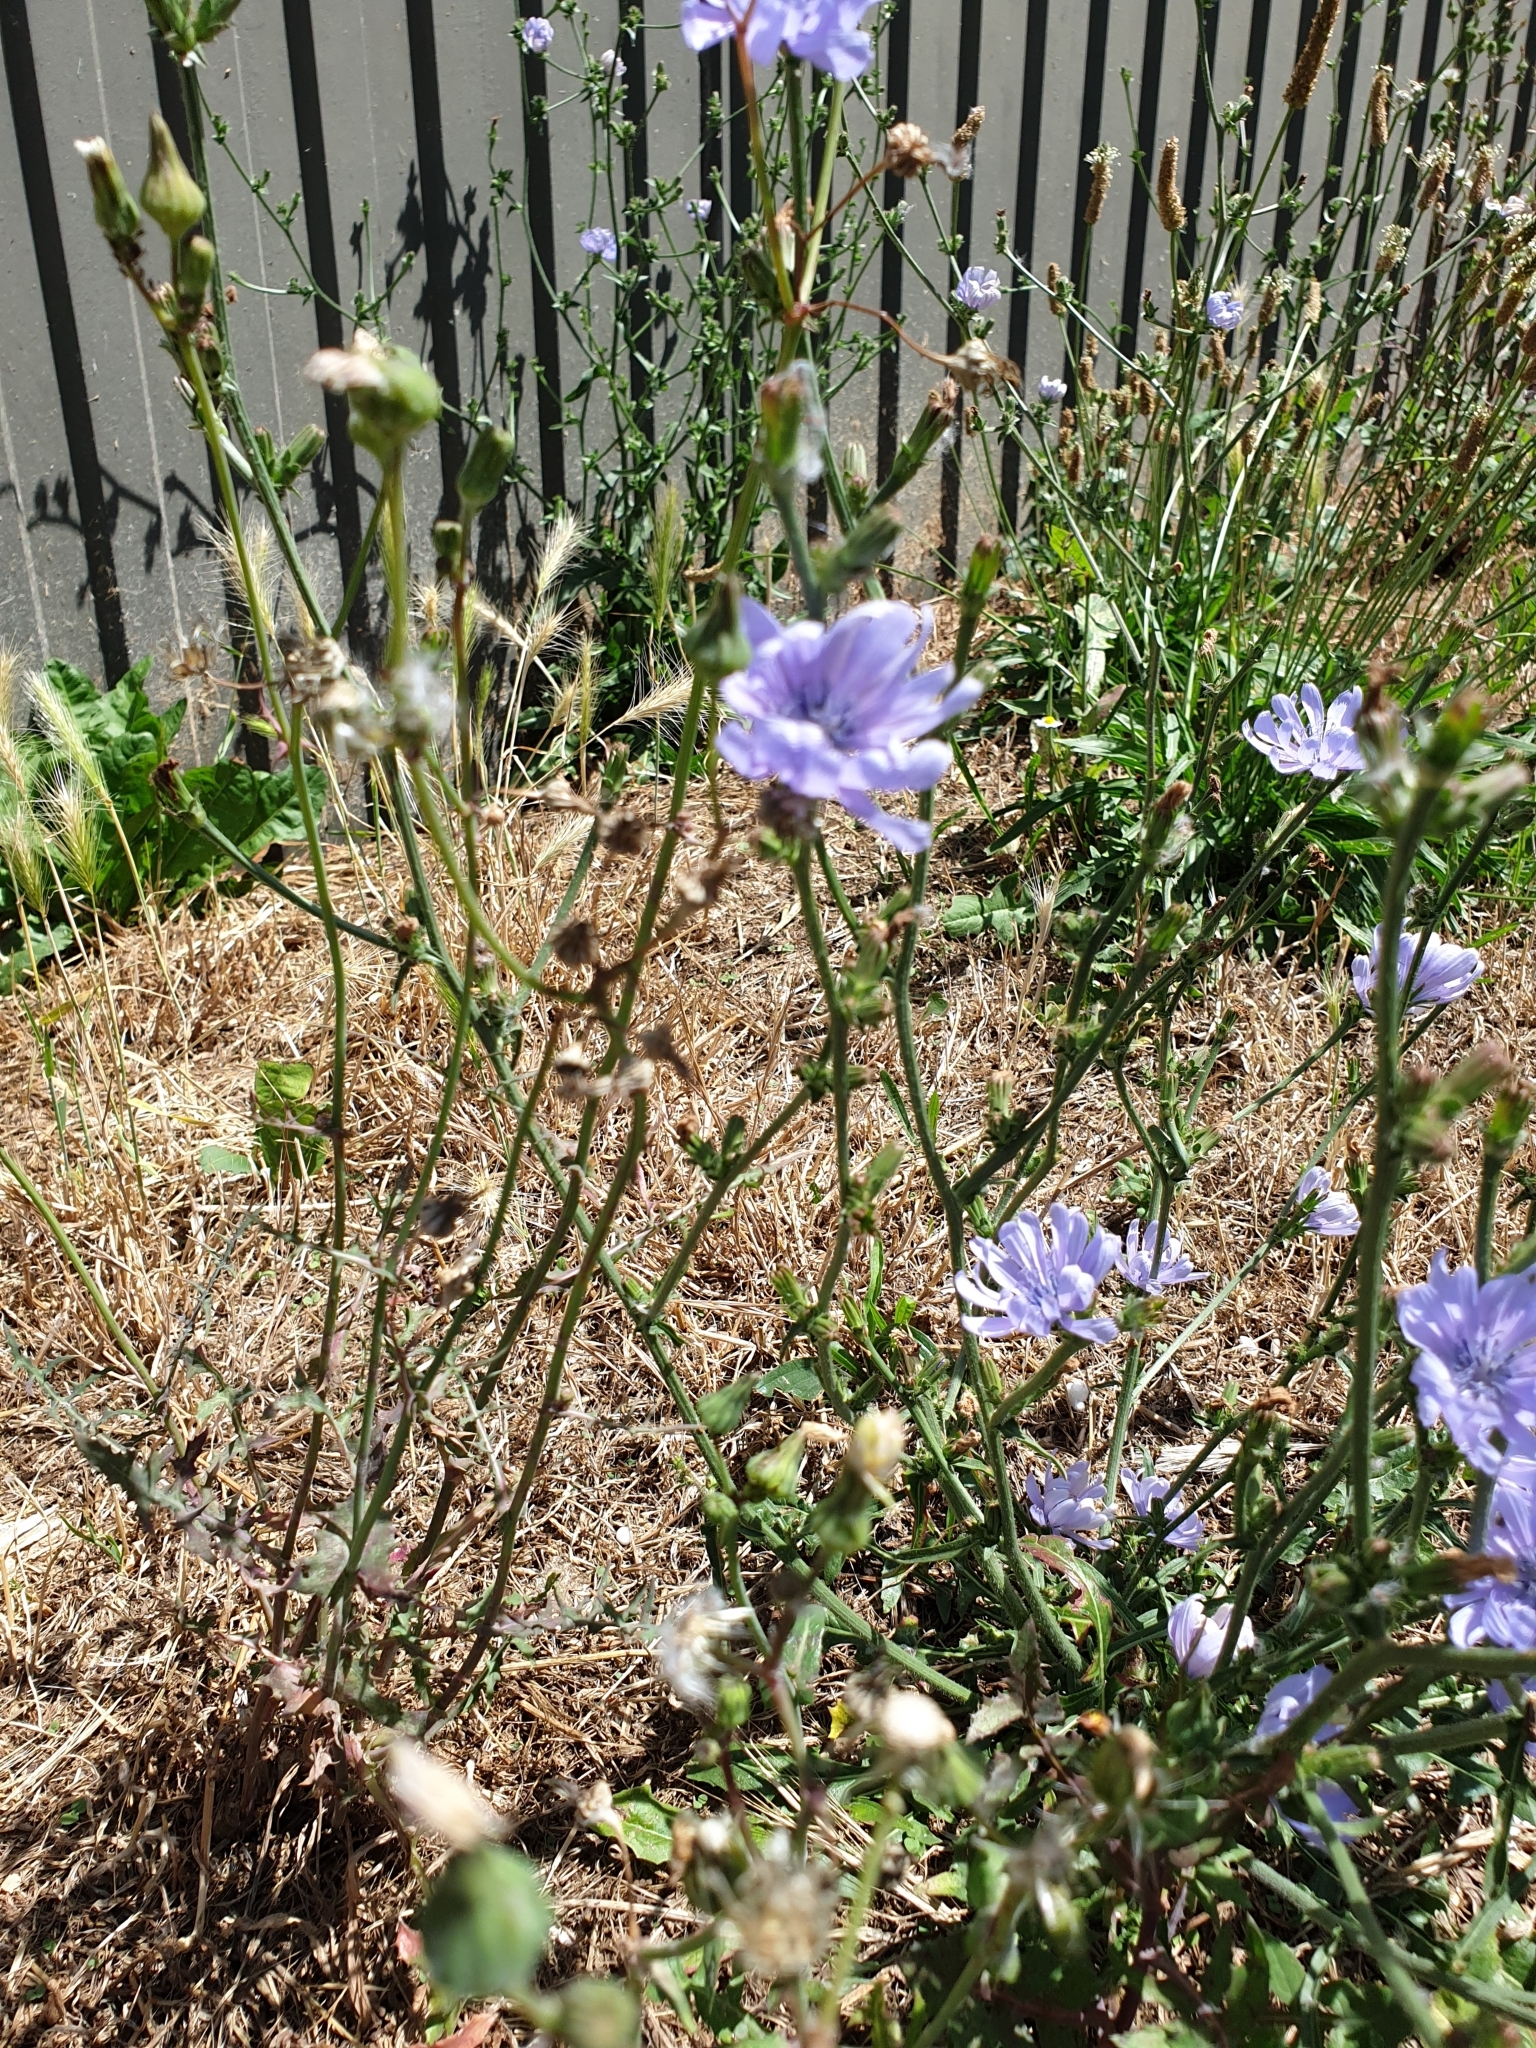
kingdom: Plantae
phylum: Tracheophyta
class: Magnoliopsida
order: Asterales
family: Asteraceae
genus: Cichorium
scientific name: Cichorium intybus
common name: Chicory
